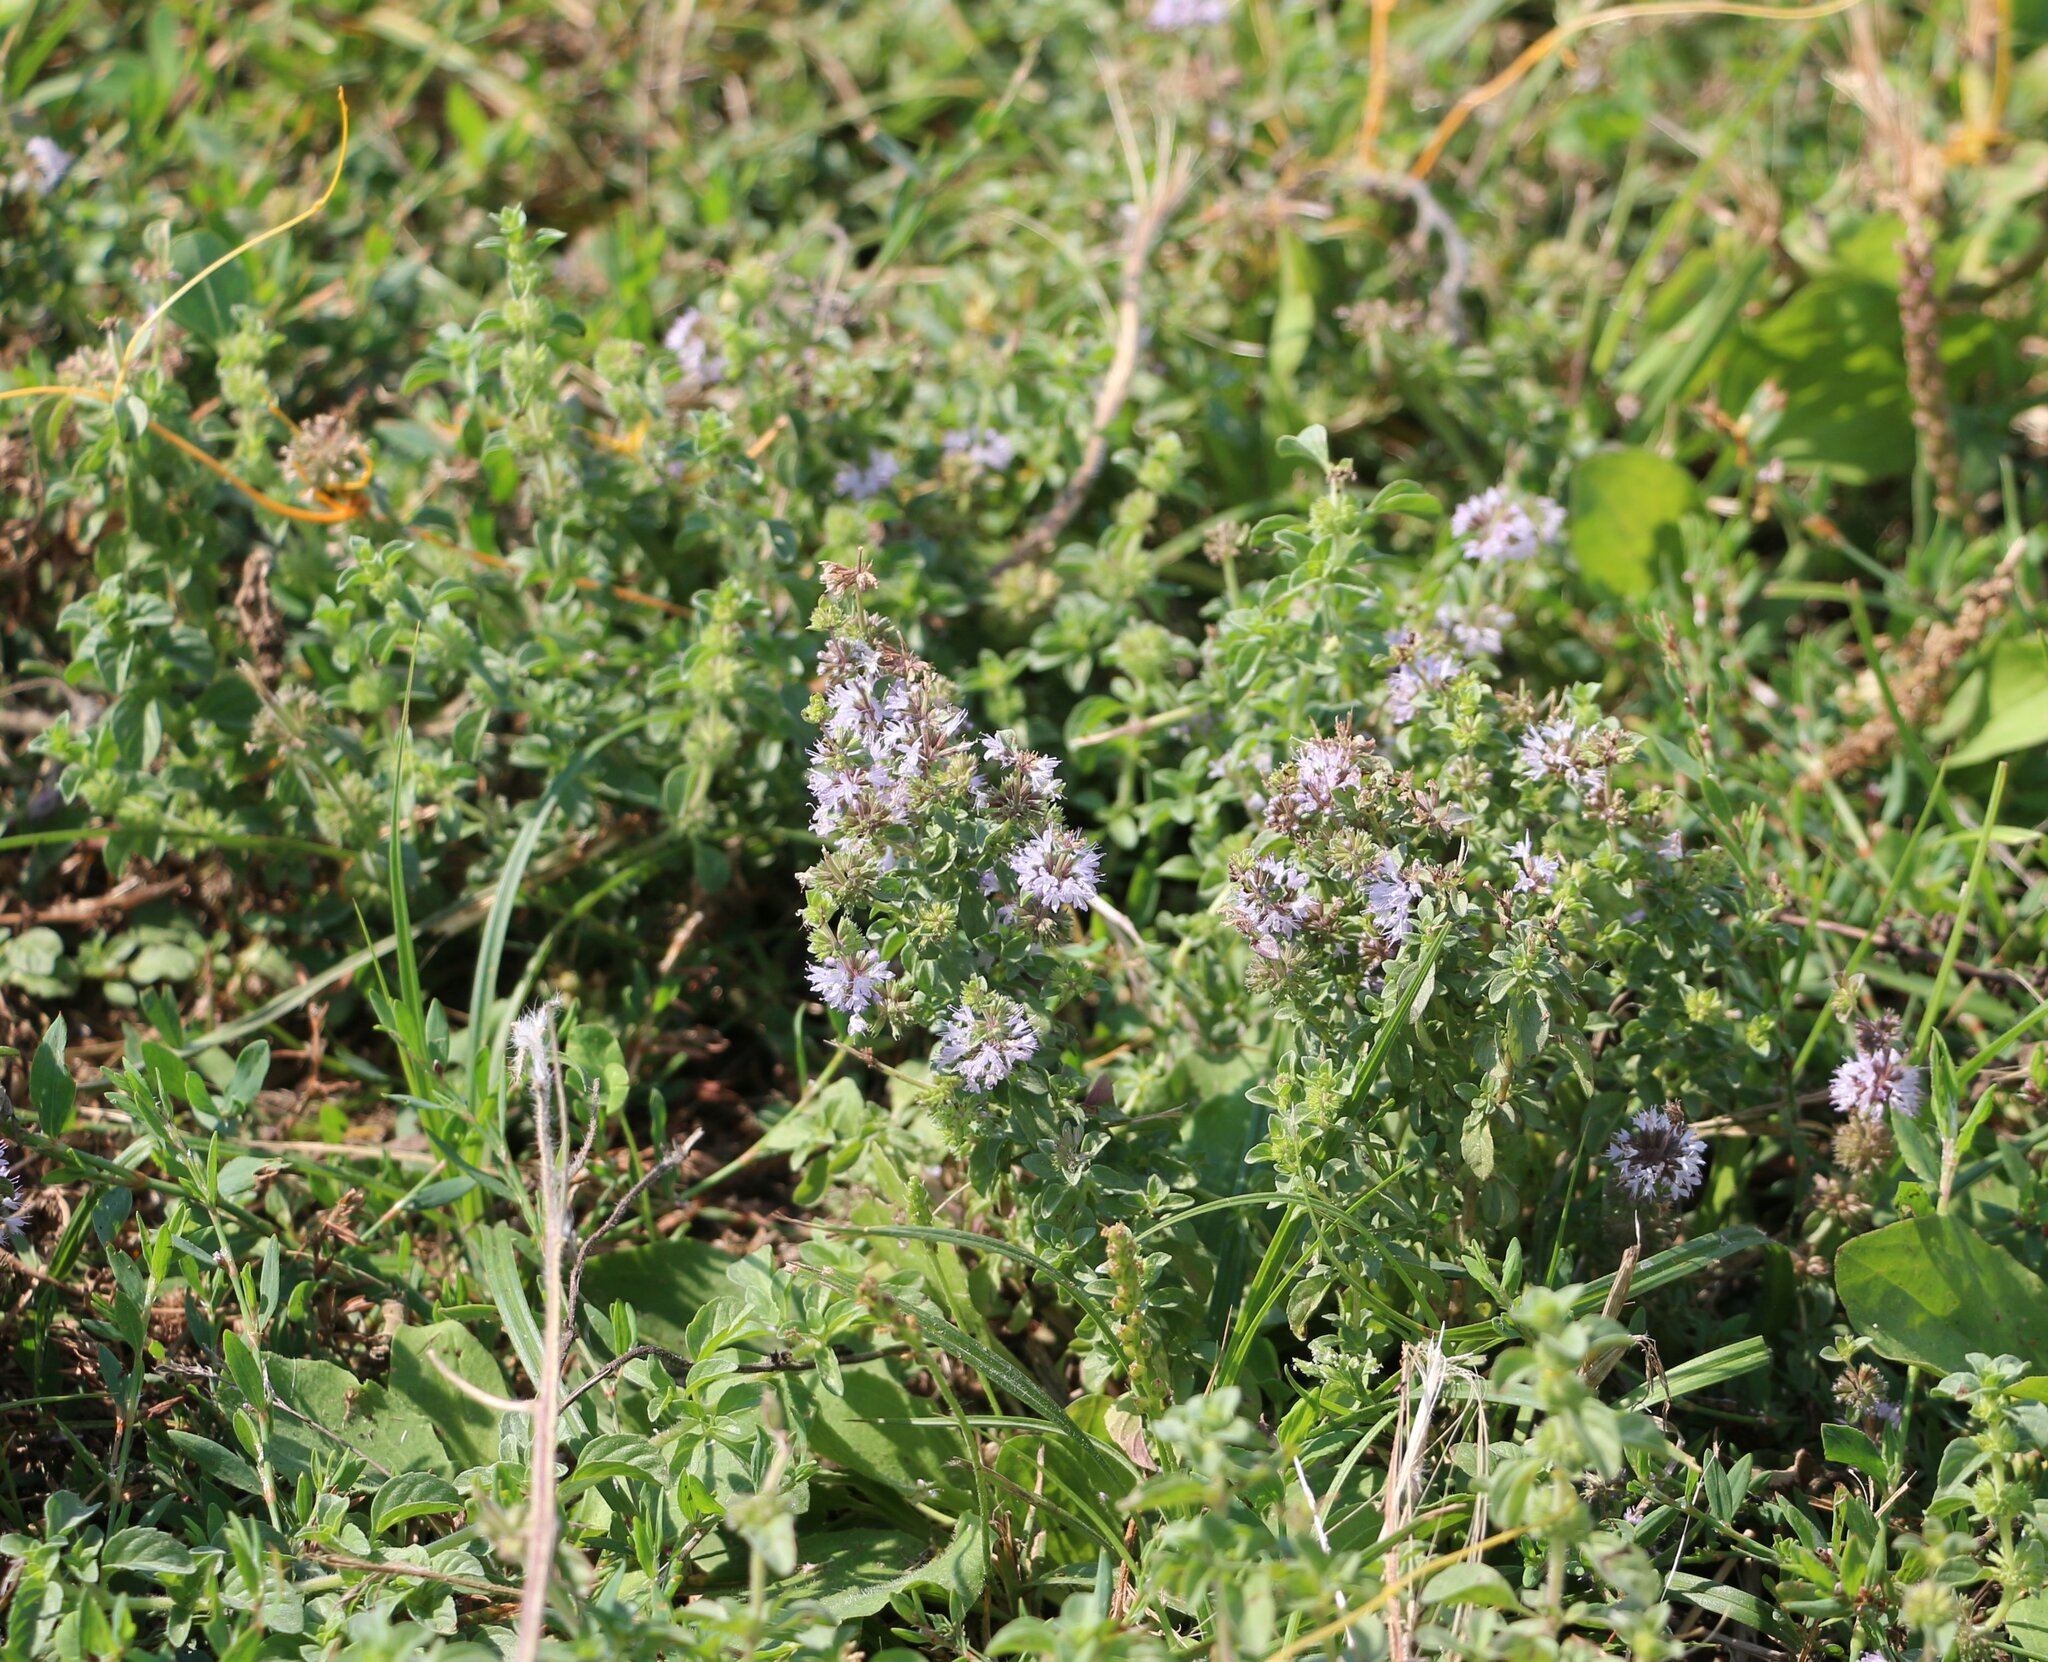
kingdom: Plantae
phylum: Tracheophyta
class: Magnoliopsida
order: Lamiales
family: Lamiaceae
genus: Mentha
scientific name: Mentha pulegium
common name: Pennyroyal
